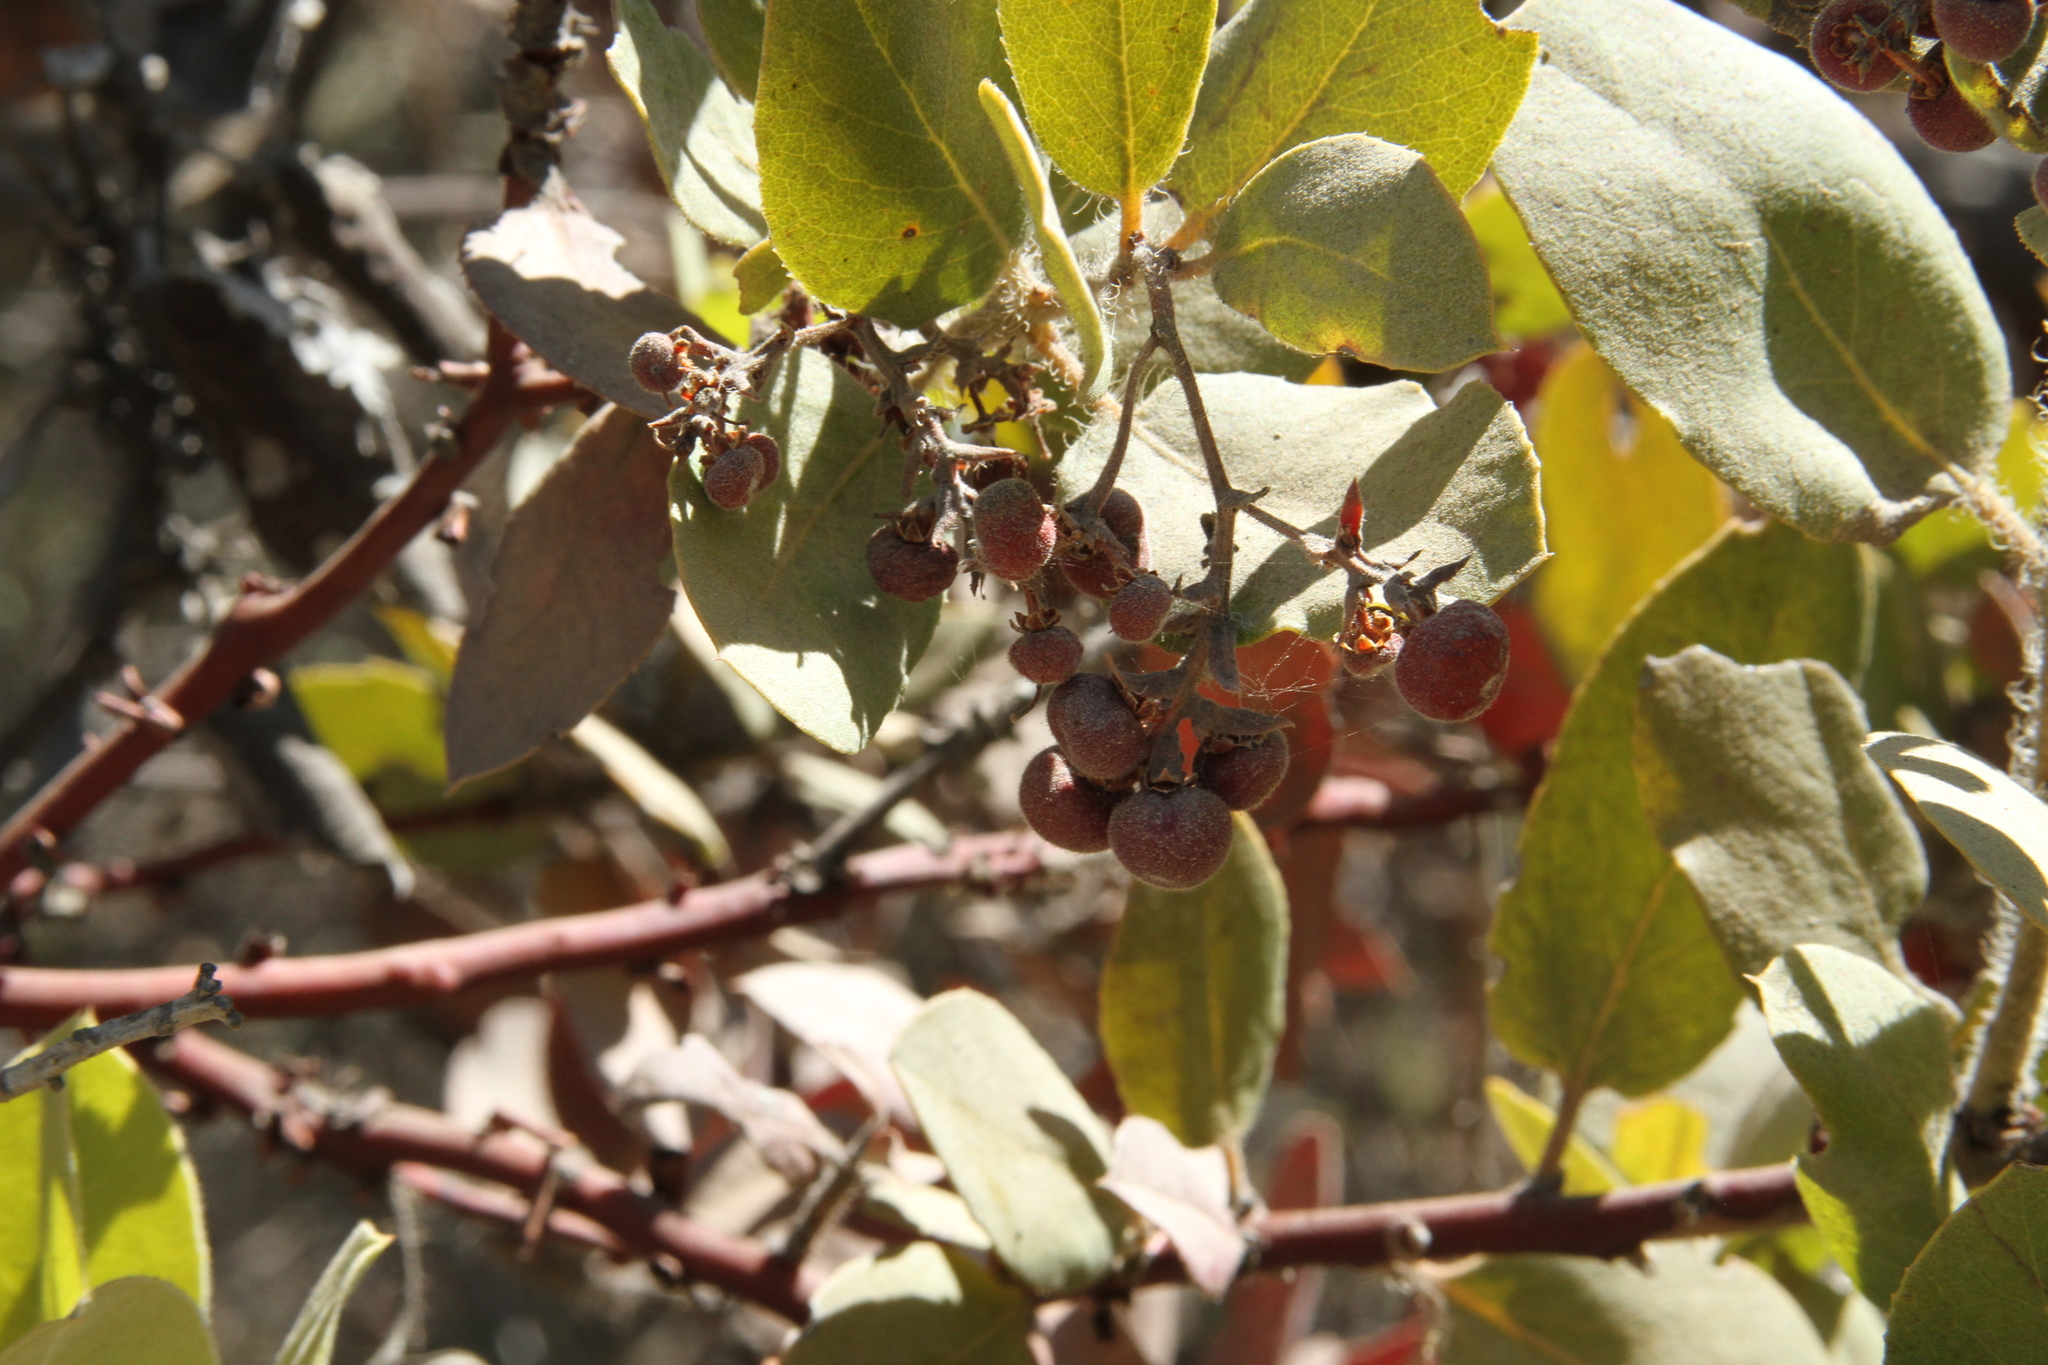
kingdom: Plantae
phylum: Tracheophyta
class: Magnoliopsida
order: Ericales
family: Ericaceae
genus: Arctostaphylos
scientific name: Arctostaphylos crustacea
